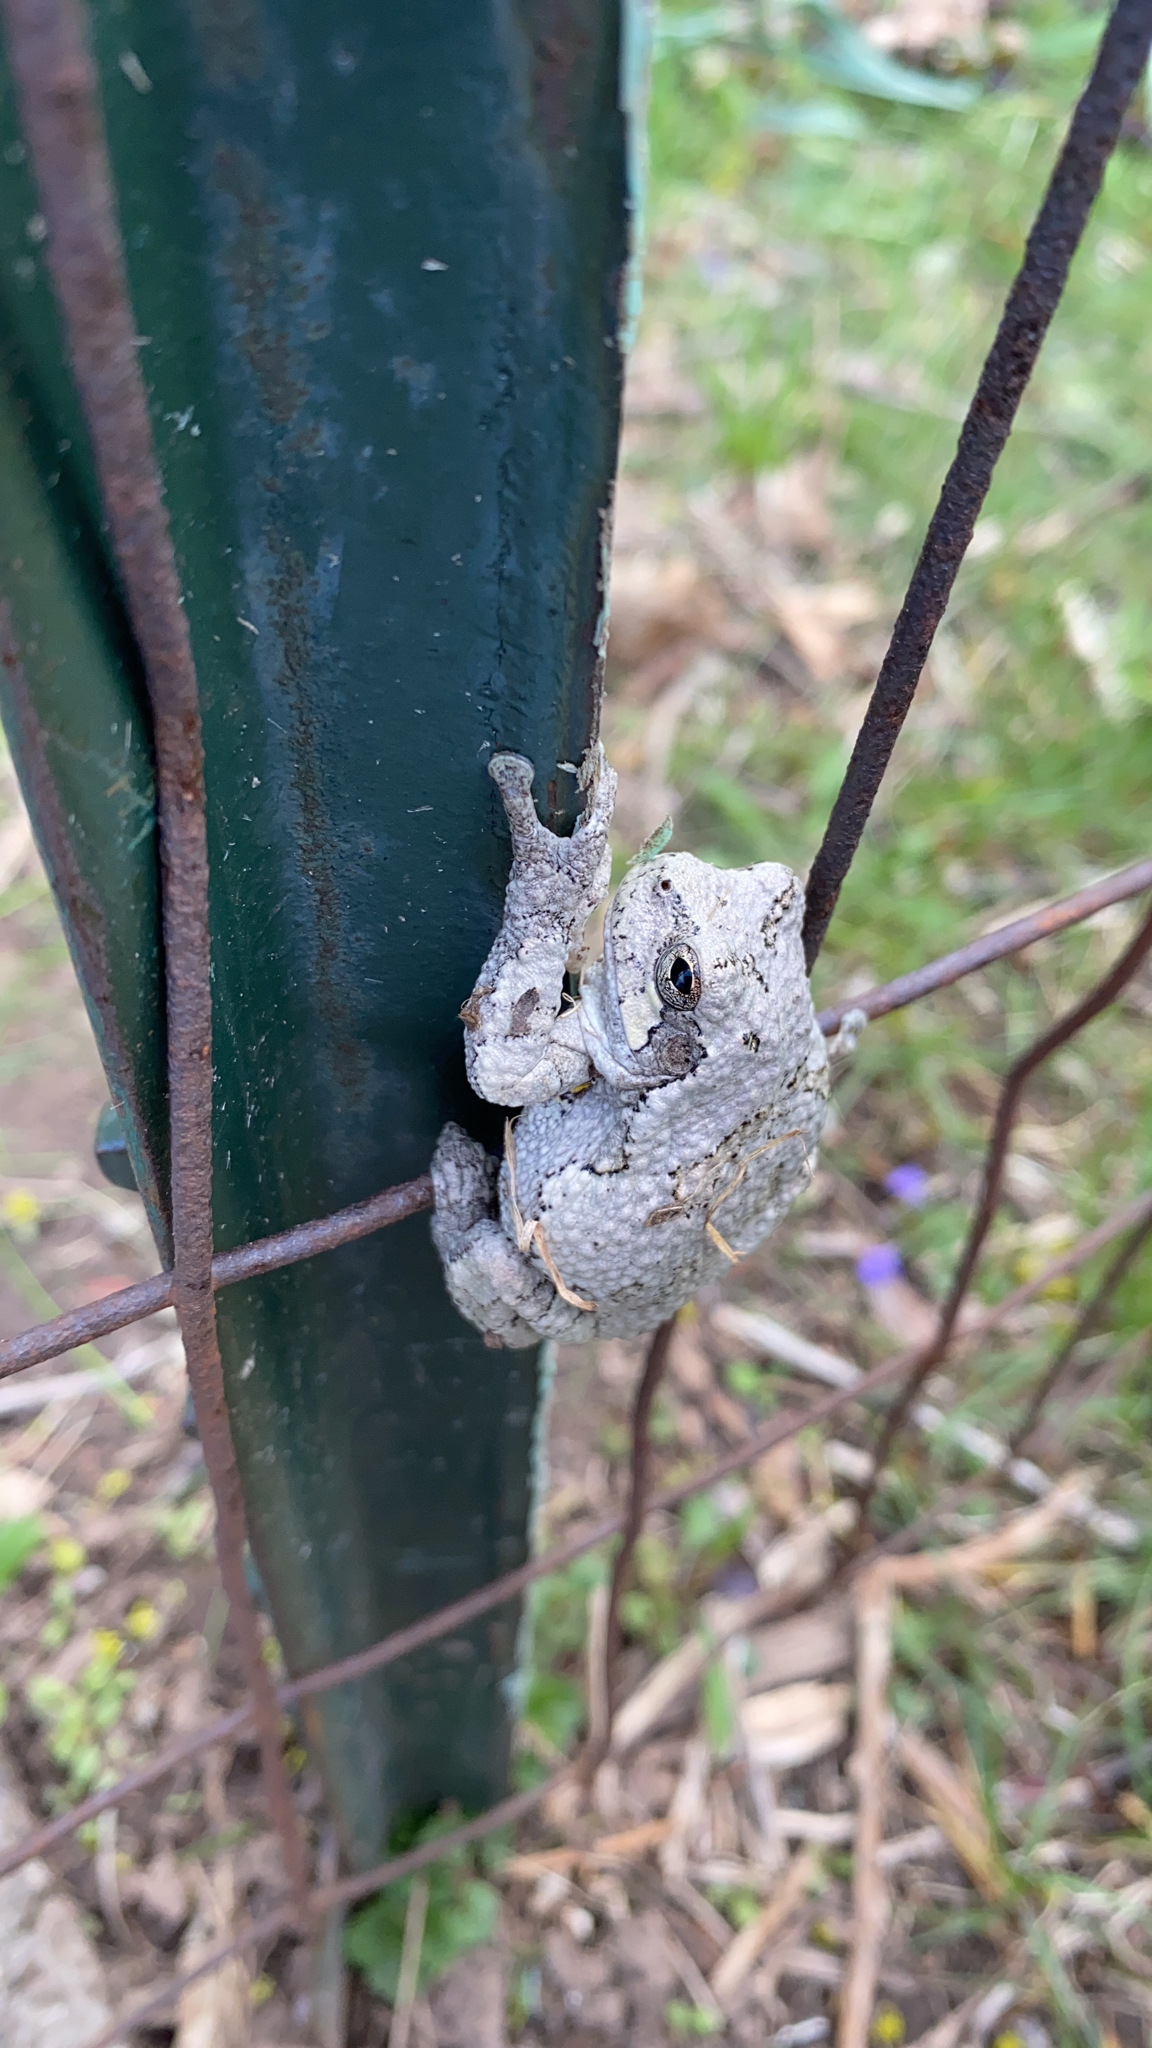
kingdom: Animalia
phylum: Chordata
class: Amphibia
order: Anura
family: Hylidae
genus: Dryophytes
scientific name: Dryophytes versicolor
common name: Gray treefrog
